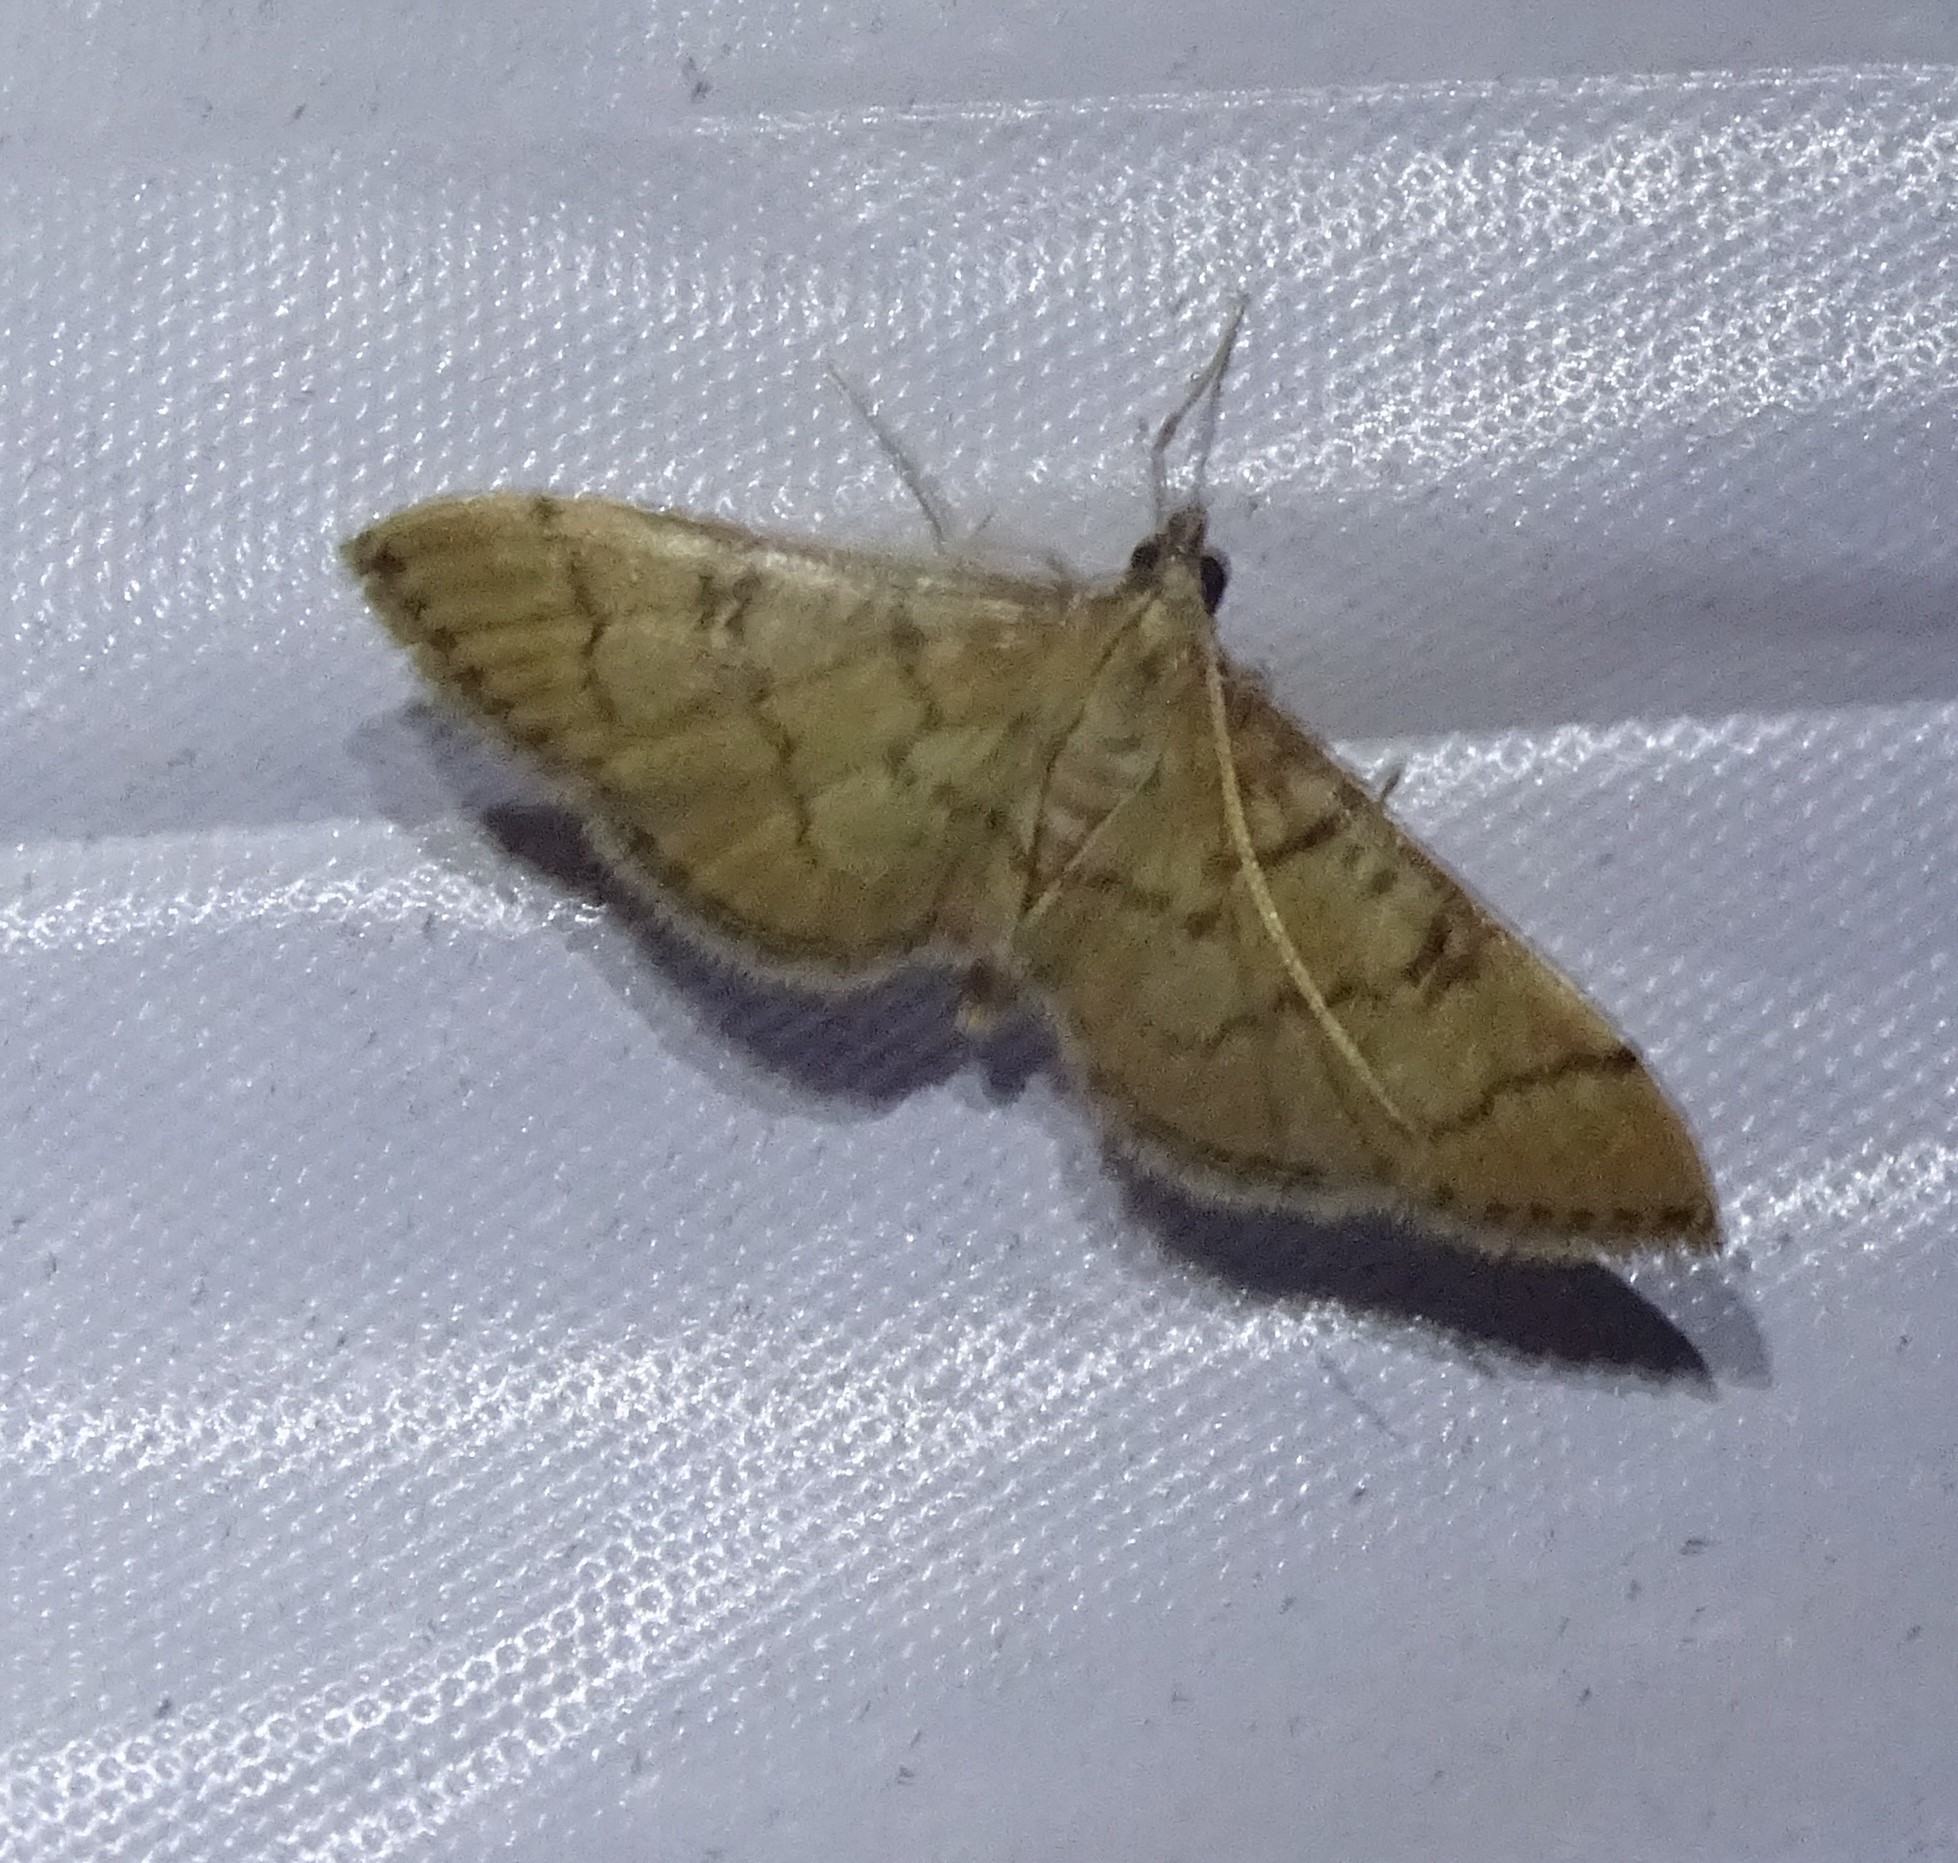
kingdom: Animalia
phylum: Arthropoda
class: Insecta
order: Lepidoptera
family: Crambidae
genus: Lamprosema
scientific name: Lamprosema Blepharomastix ranalis
